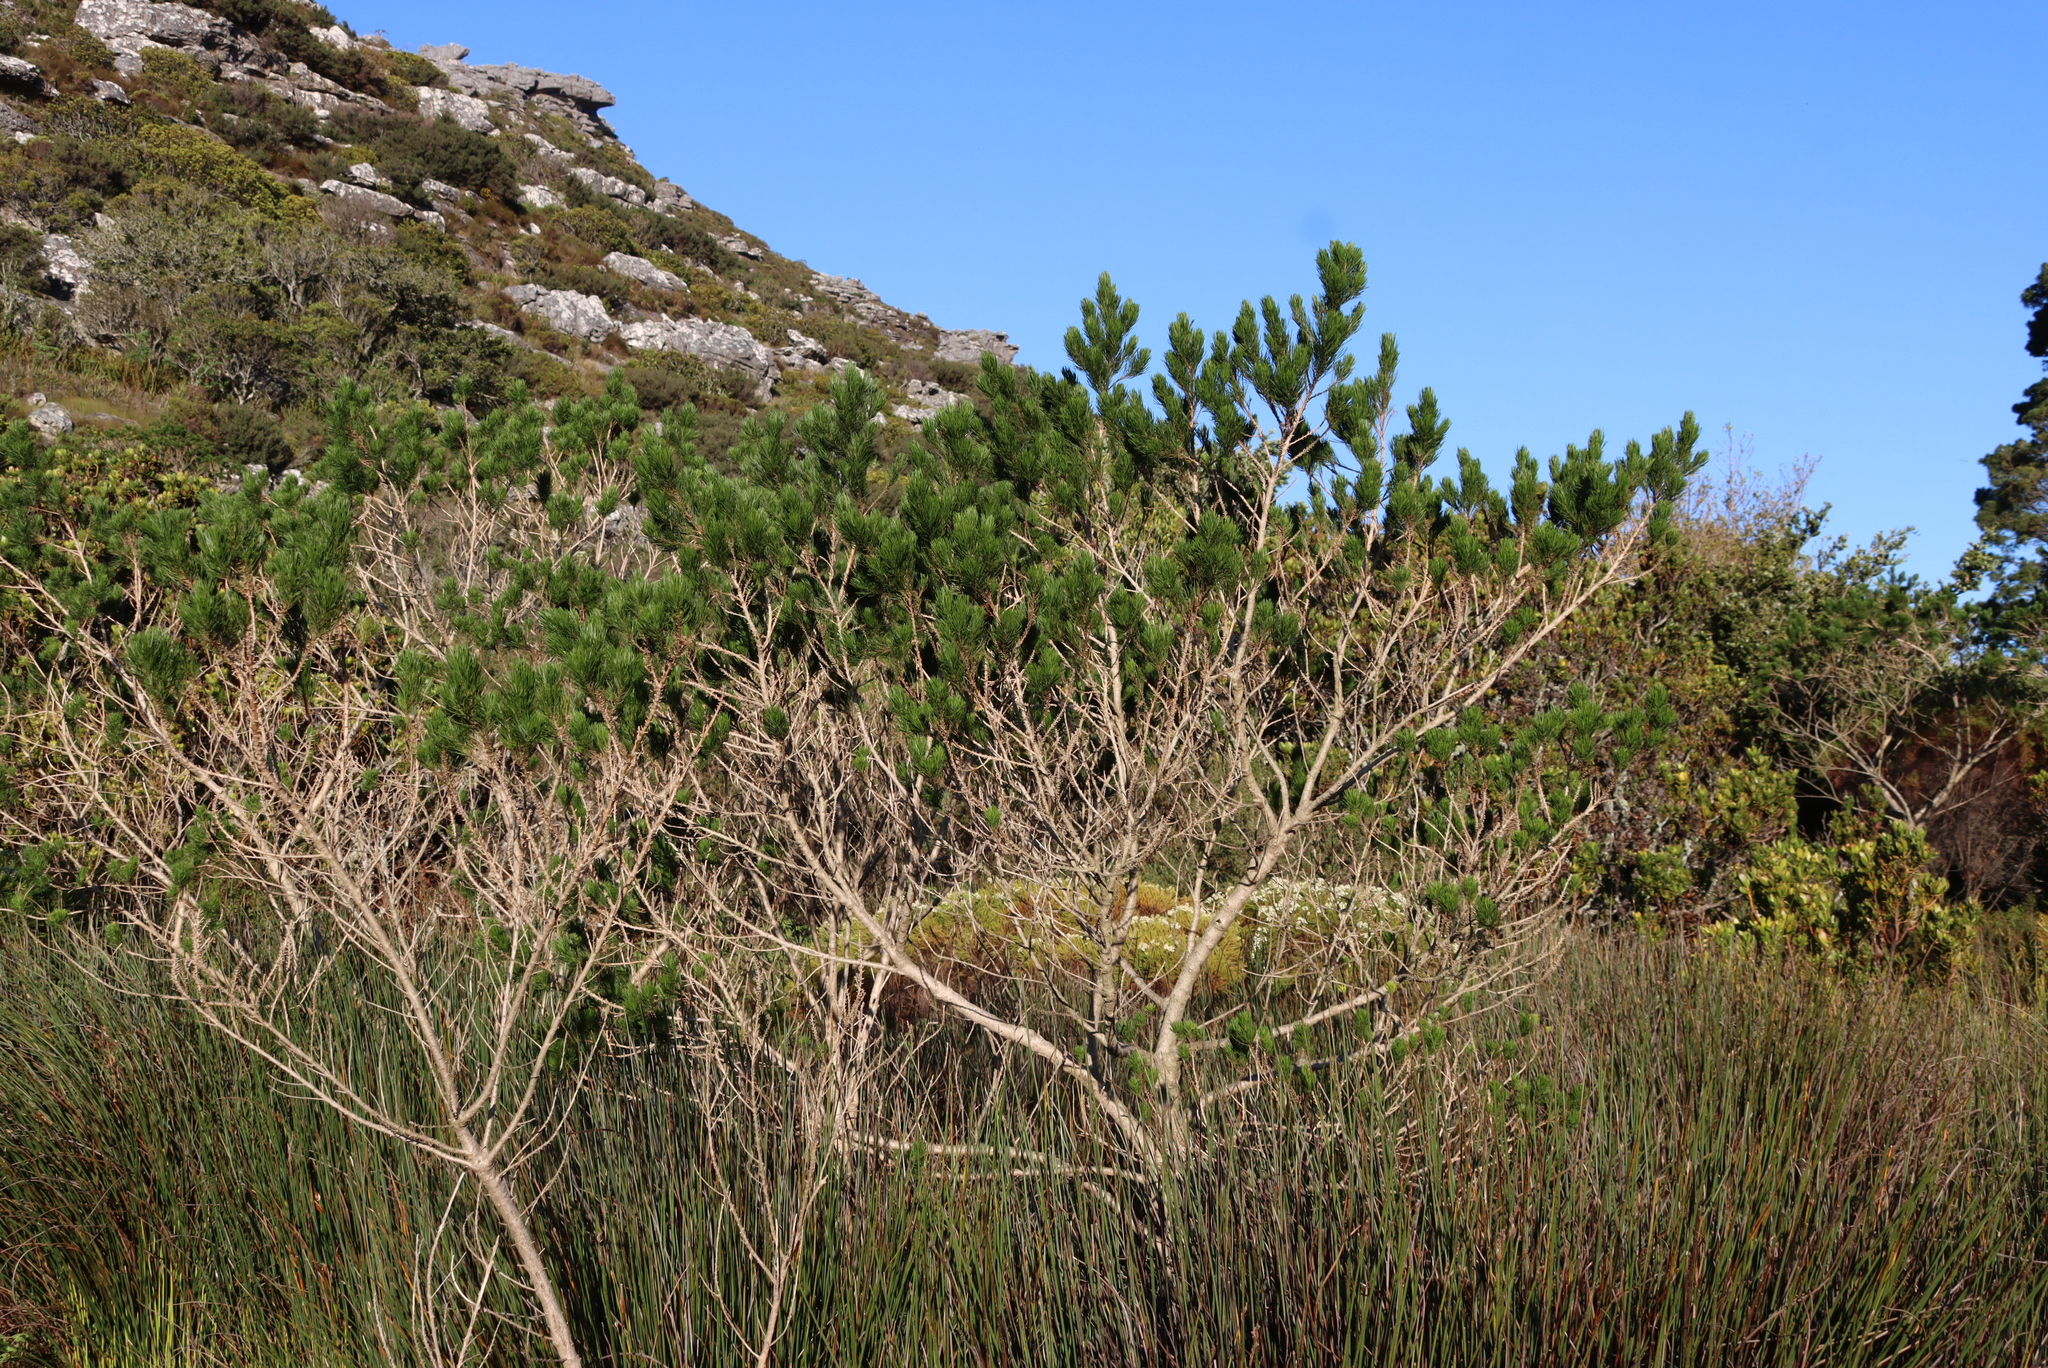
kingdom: Plantae
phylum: Tracheophyta
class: Magnoliopsida
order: Fabales
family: Fabaceae
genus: Psoralea
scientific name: Psoralea pinnata
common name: African scurfpea
